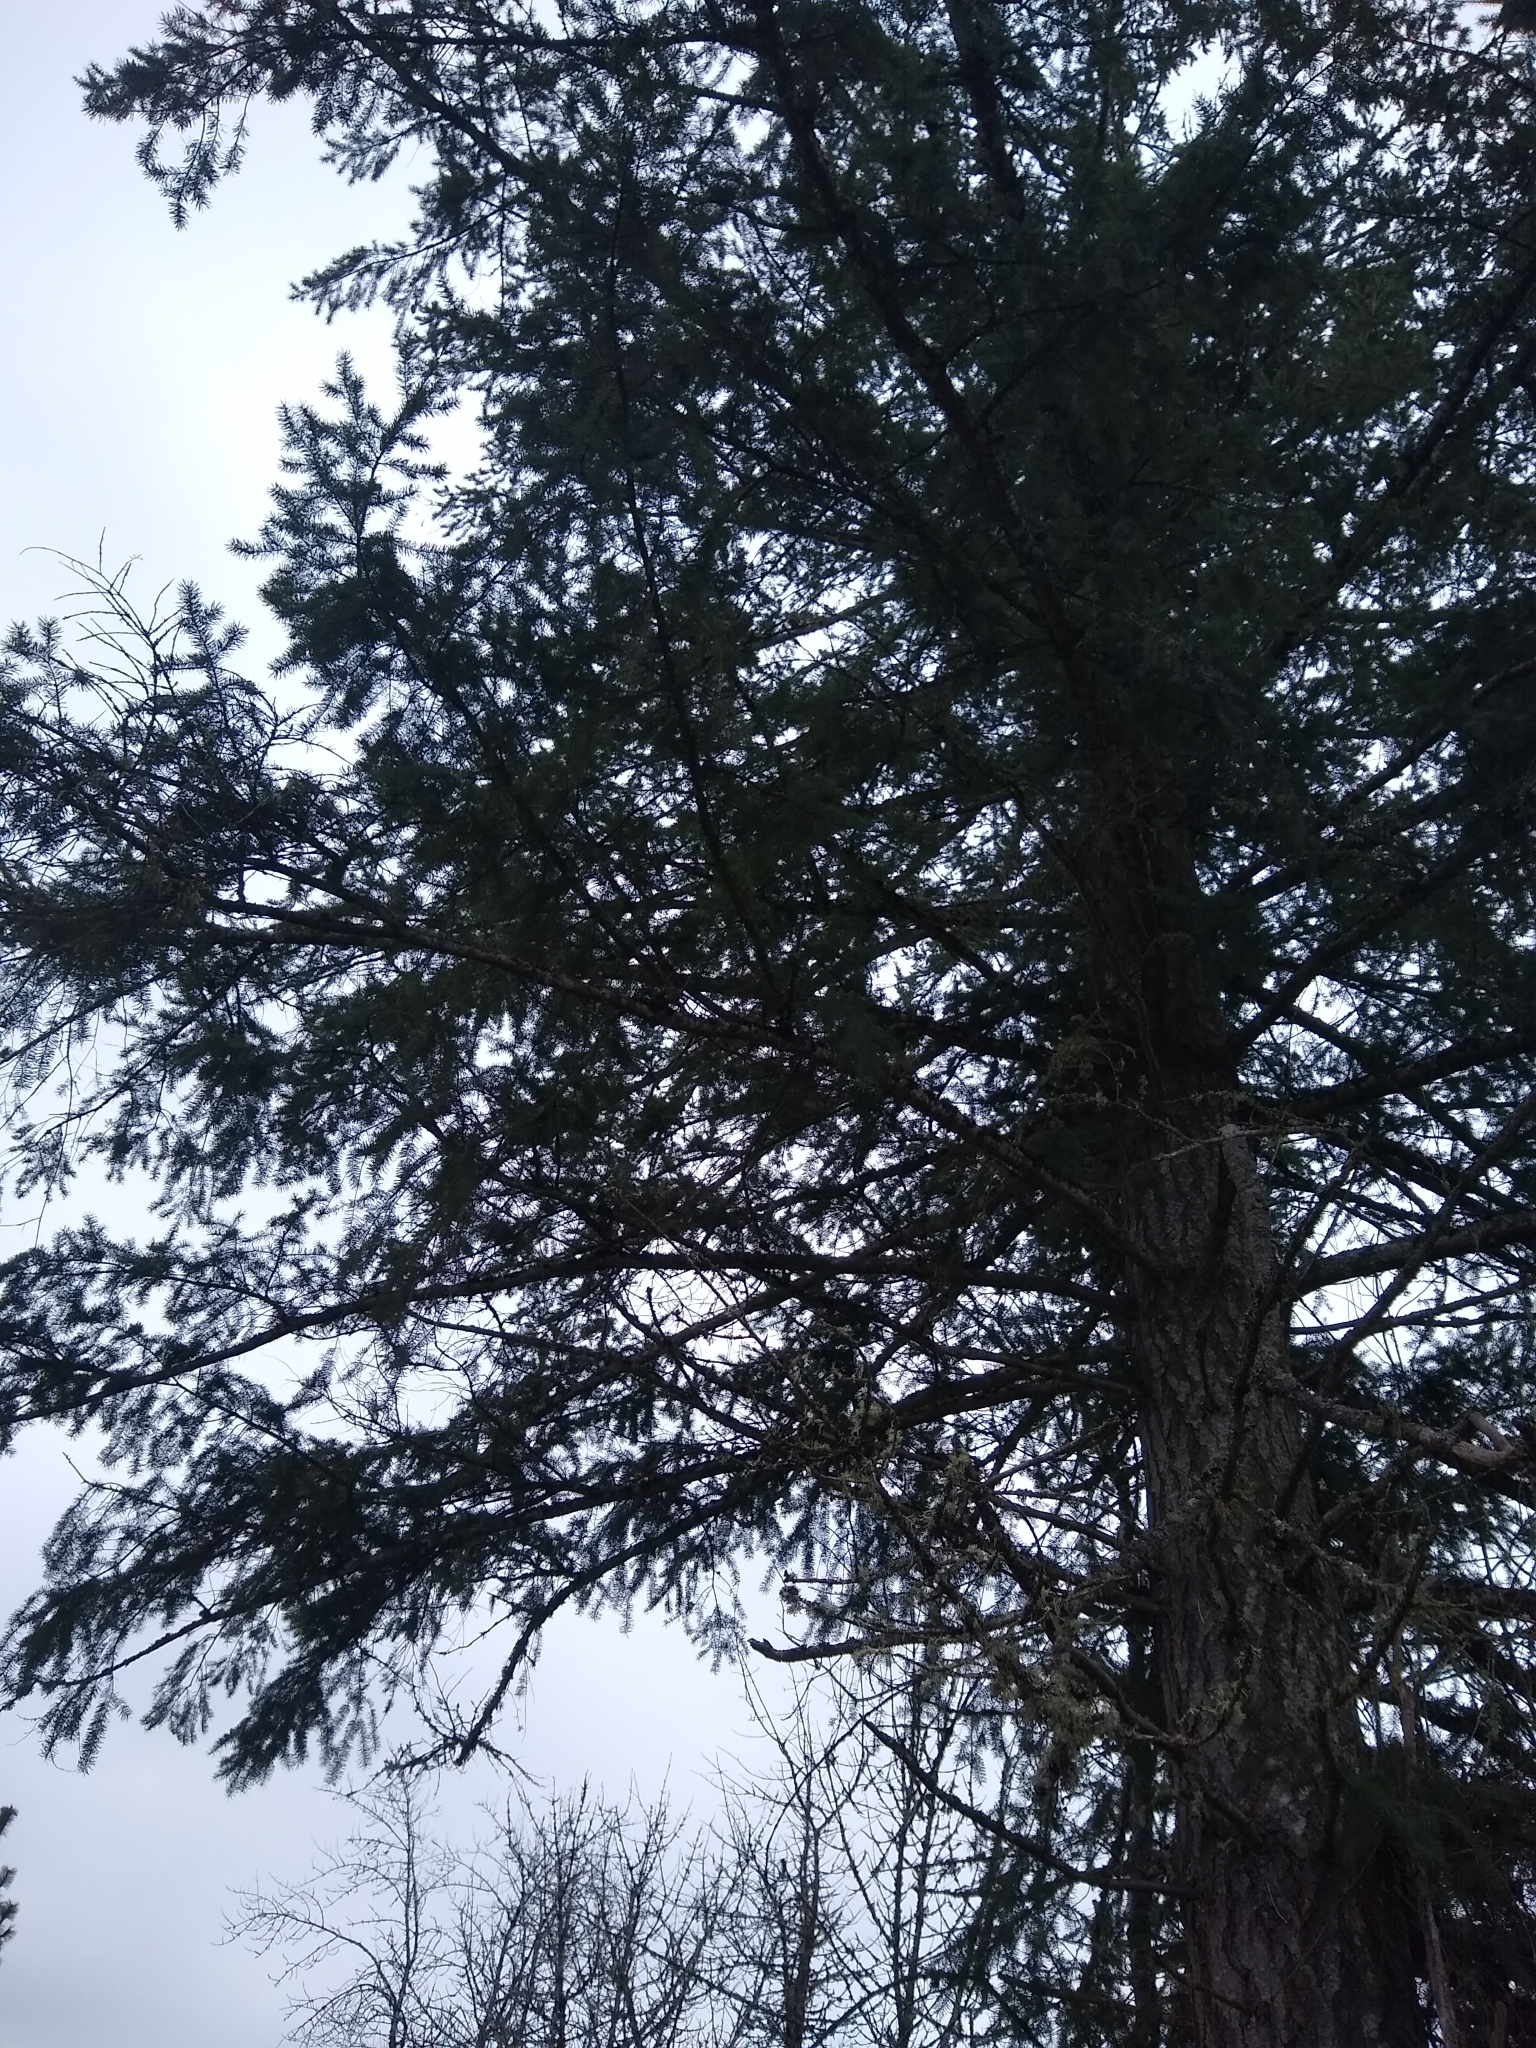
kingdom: Plantae
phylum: Tracheophyta
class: Pinopsida
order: Pinales
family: Pinaceae
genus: Pseudotsuga
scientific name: Pseudotsuga menziesii
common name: Douglas fir
